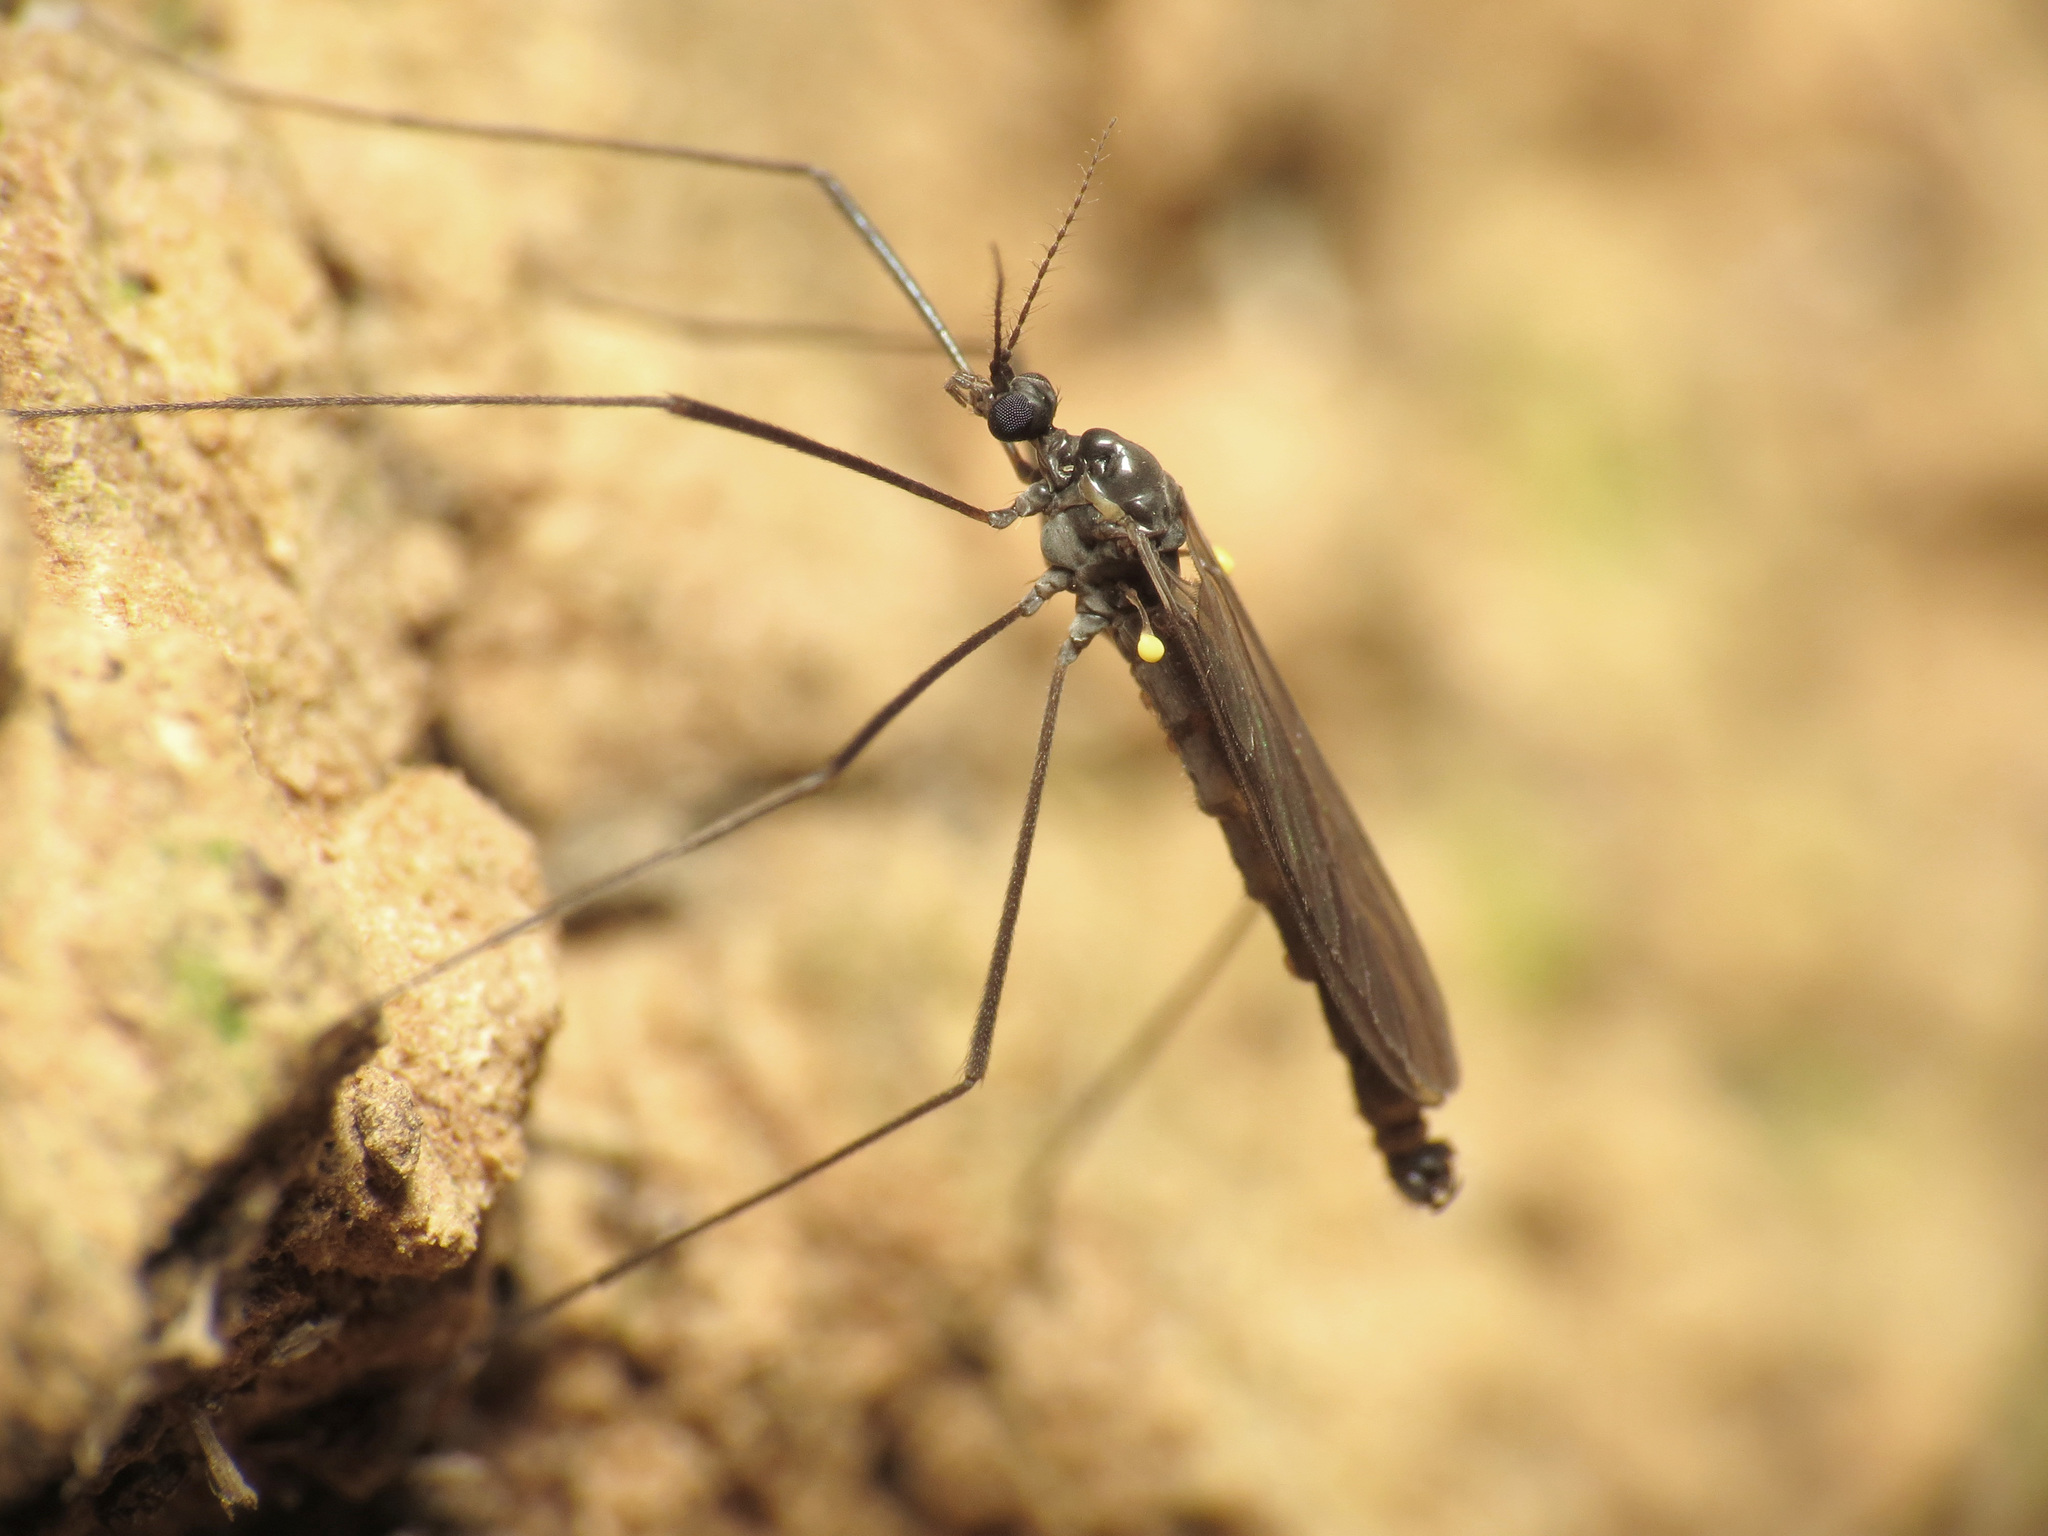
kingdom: Animalia
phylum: Arthropoda
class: Insecta
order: Diptera
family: Limoniidae
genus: Gnophomyia
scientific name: Gnophomyia tristissima
